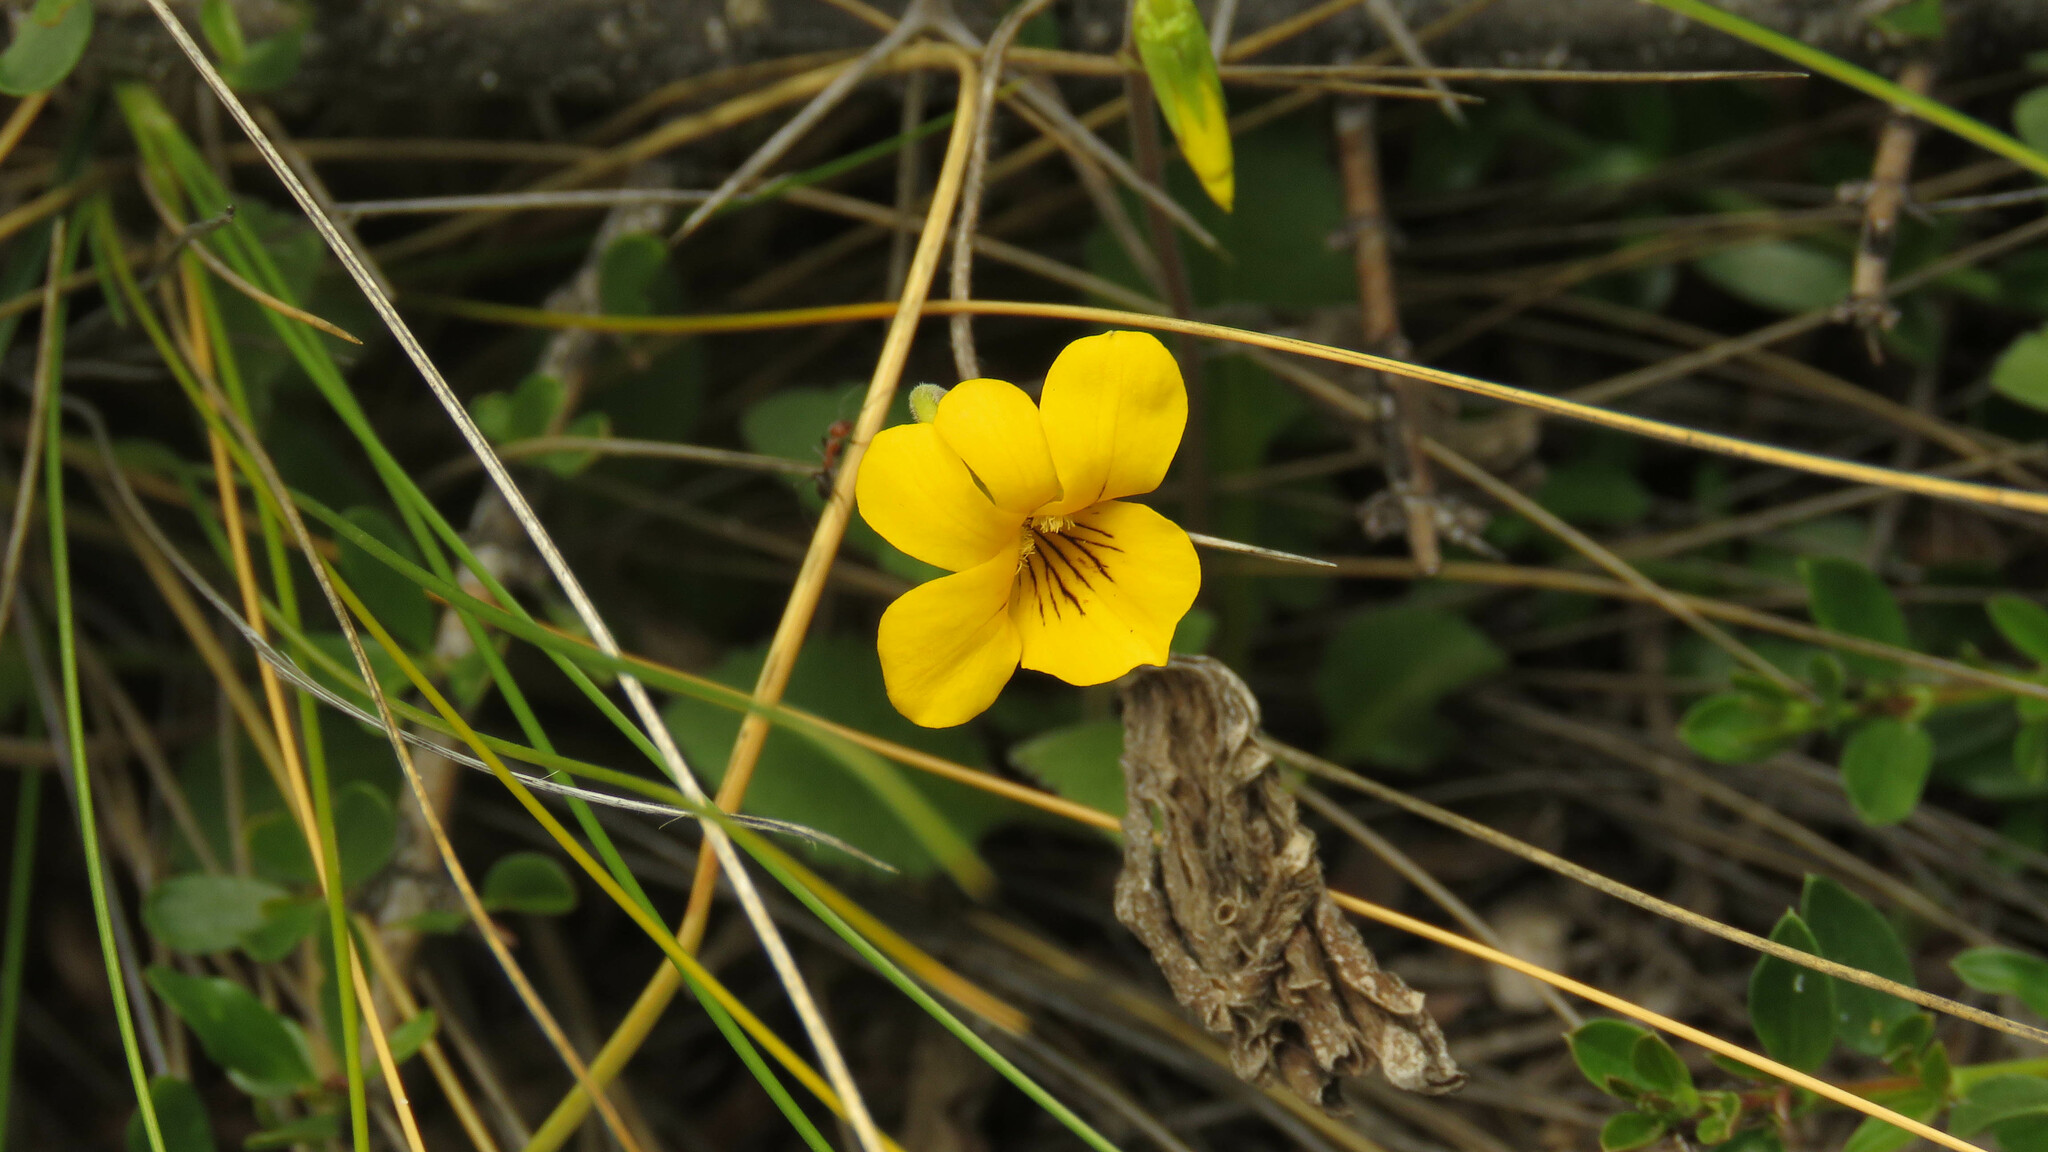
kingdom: Plantae
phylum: Tracheophyta
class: Magnoliopsida
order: Malpighiales
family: Violaceae
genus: Viola
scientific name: Viola maculata
